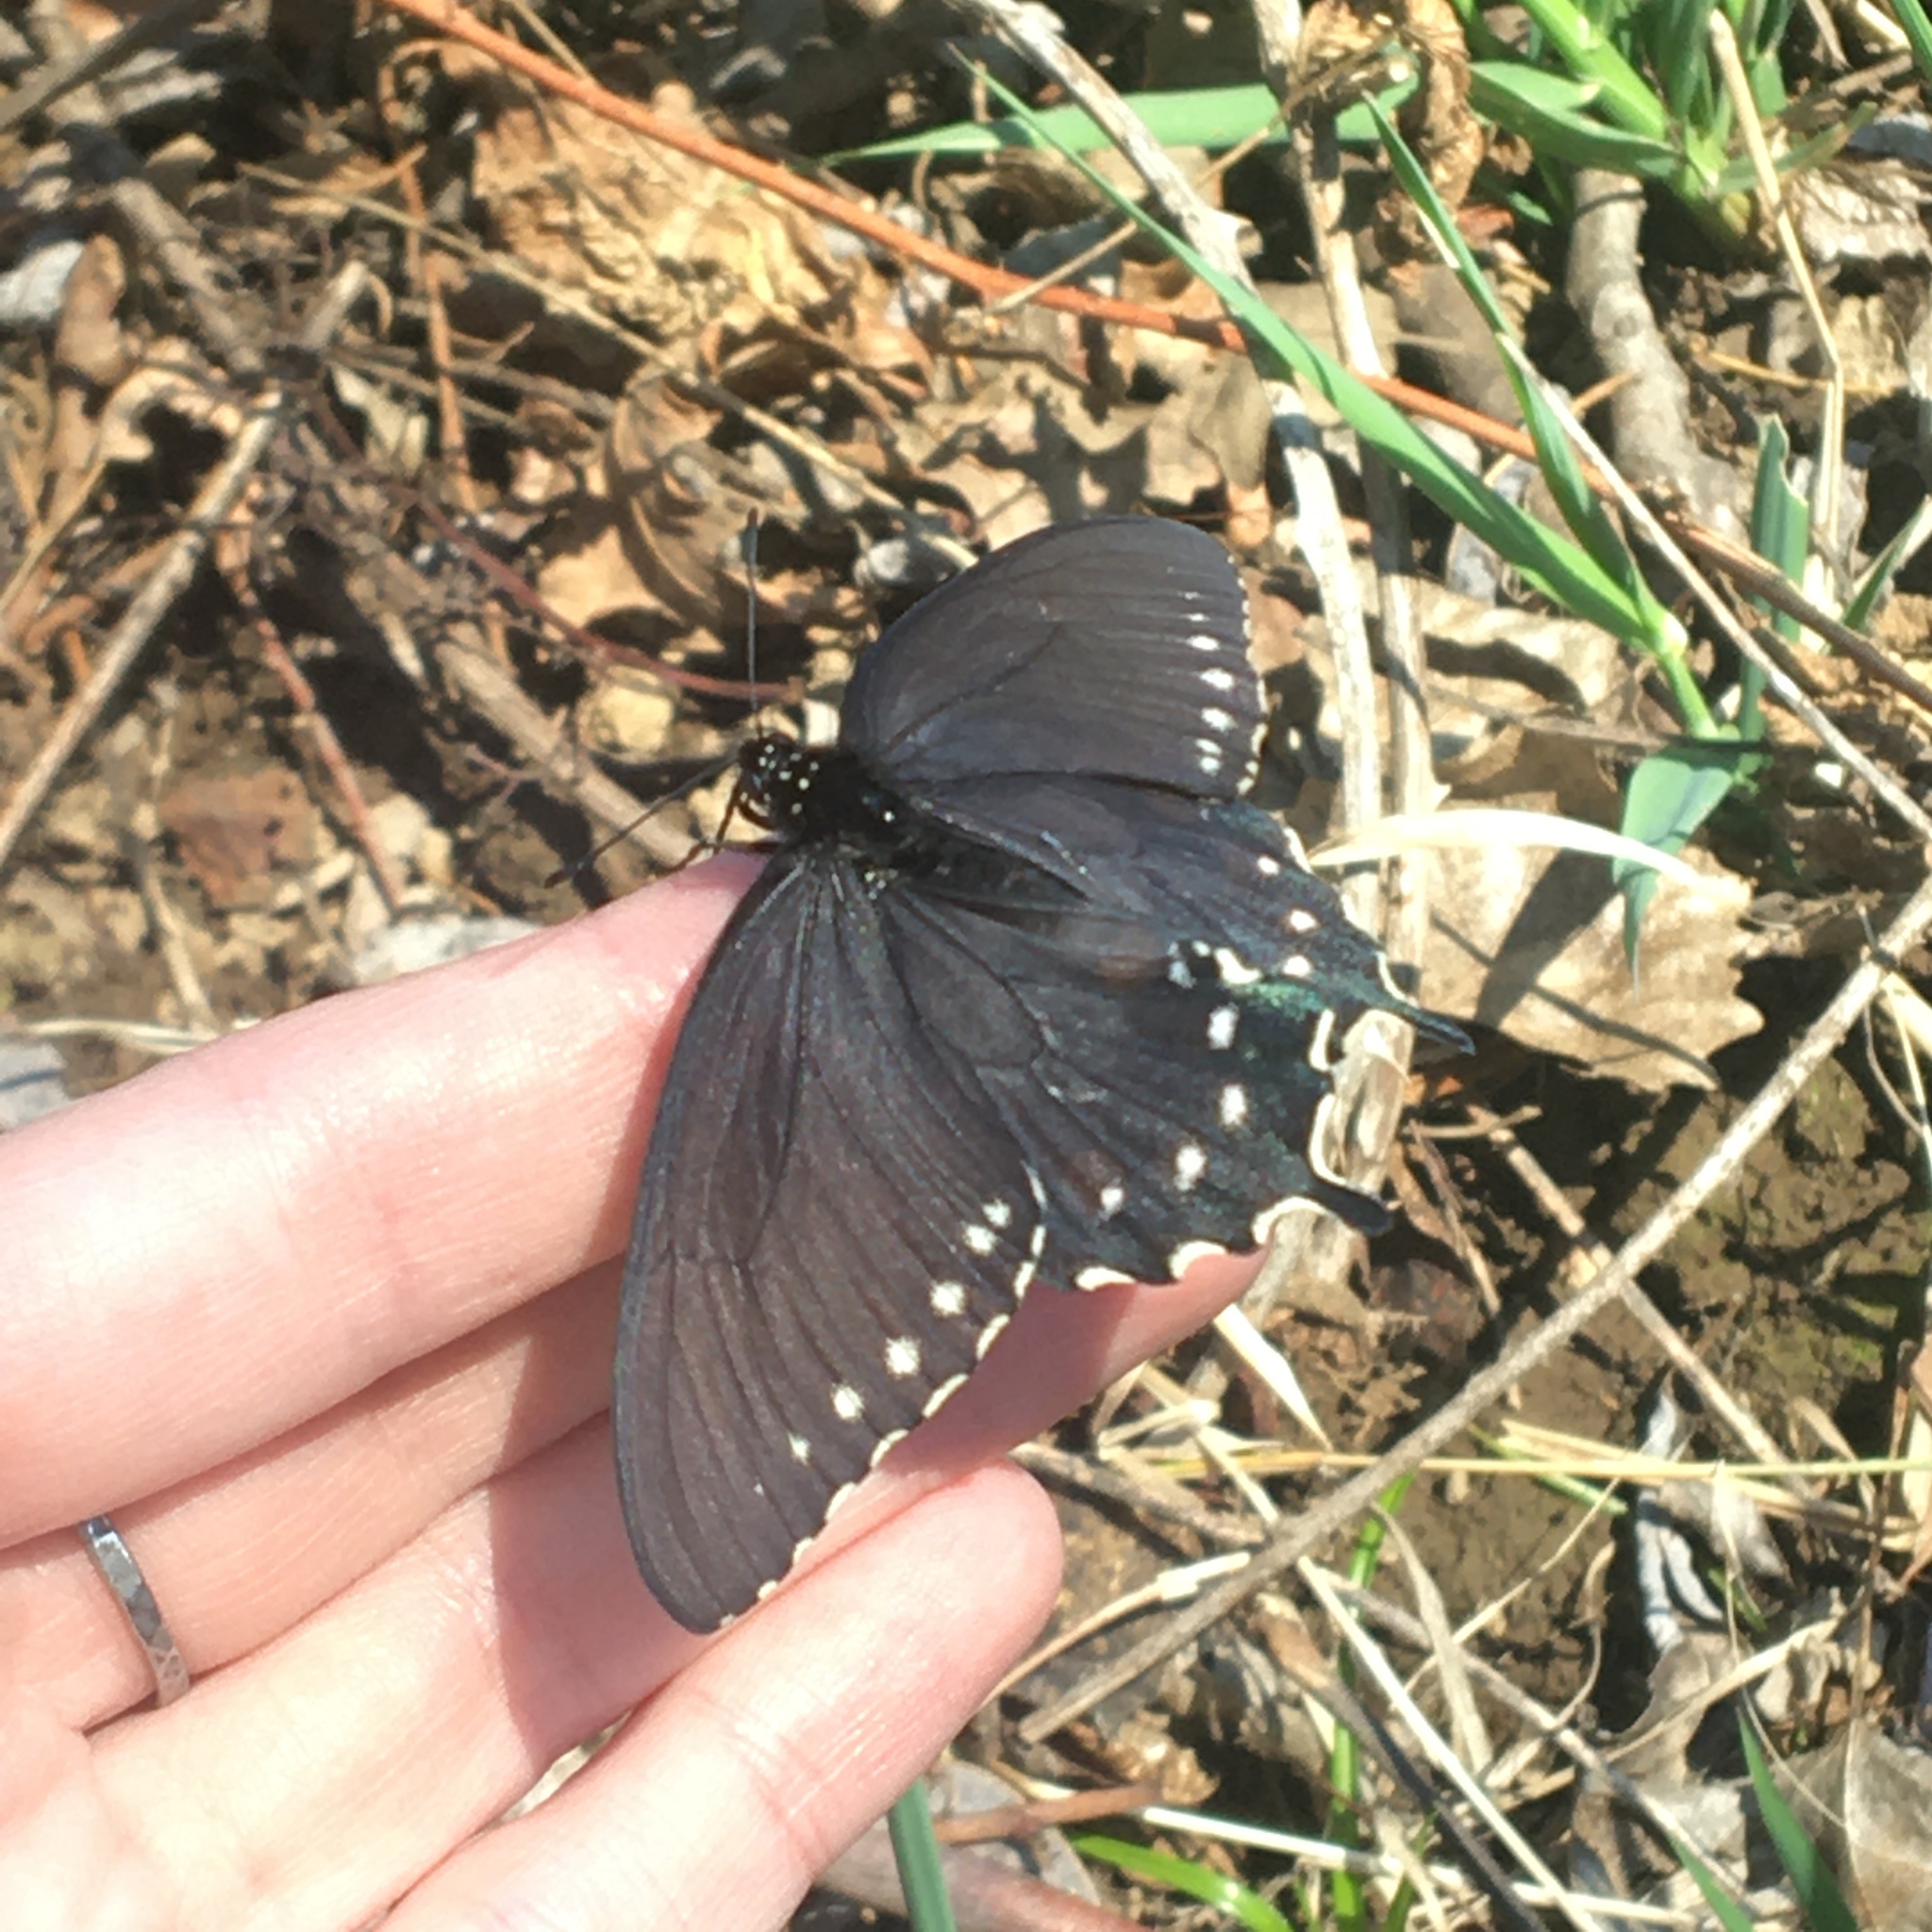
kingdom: Animalia
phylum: Arthropoda
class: Insecta
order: Lepidoptera
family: Papilionidae
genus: Battus
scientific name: Battus philenor
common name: Pipevine swallowtail
